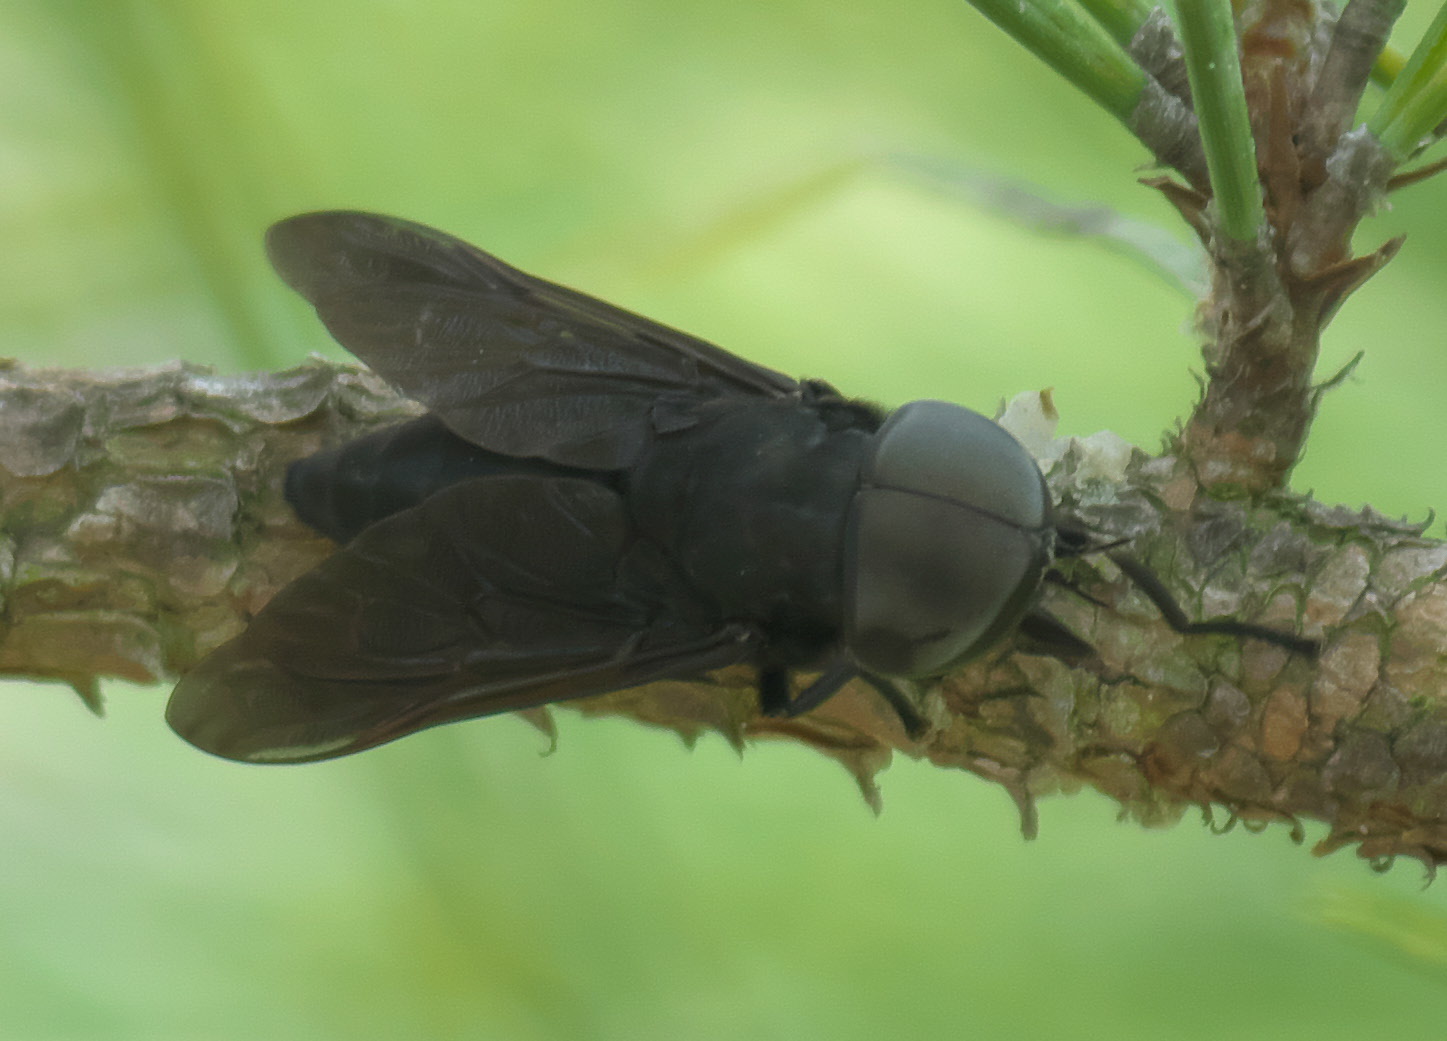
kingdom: Animalia
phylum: Arthropoda
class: Insecta
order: Diptera
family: Tabanidae
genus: Tabanus
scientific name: Tabanus atratus
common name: Black horse fly
